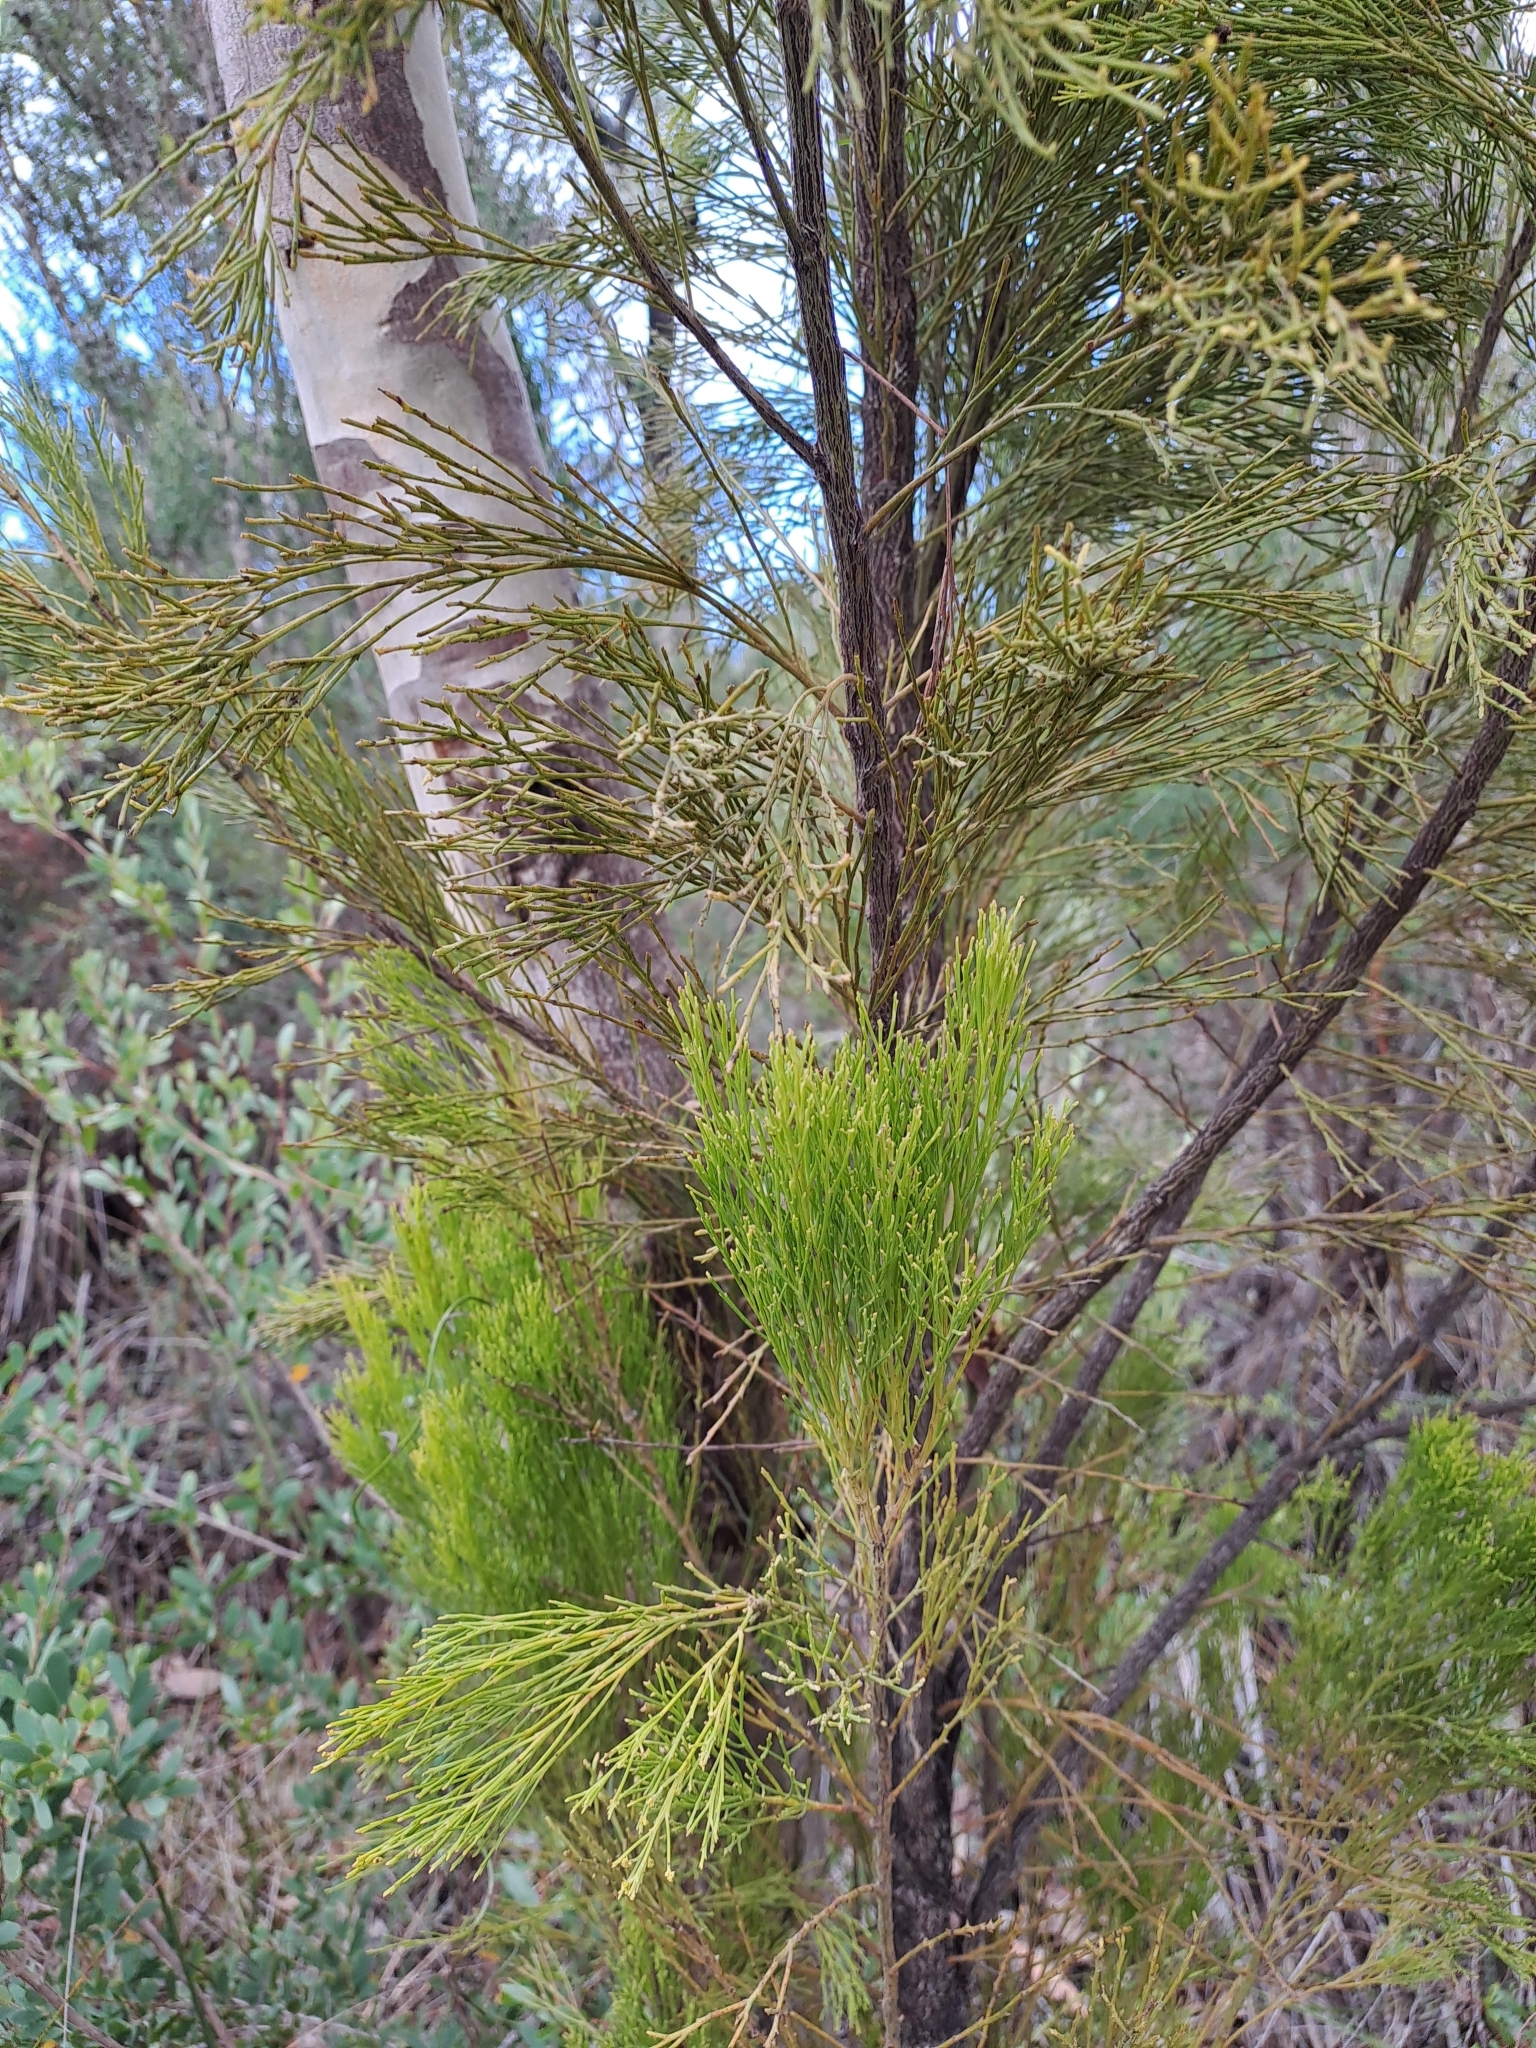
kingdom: Plantae
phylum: Tracheophyta
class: Magnoliopsida
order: Santalales
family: Santalaceae
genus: Exocarpos
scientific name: Exocarpos cupressiformis
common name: Cherry ballart
